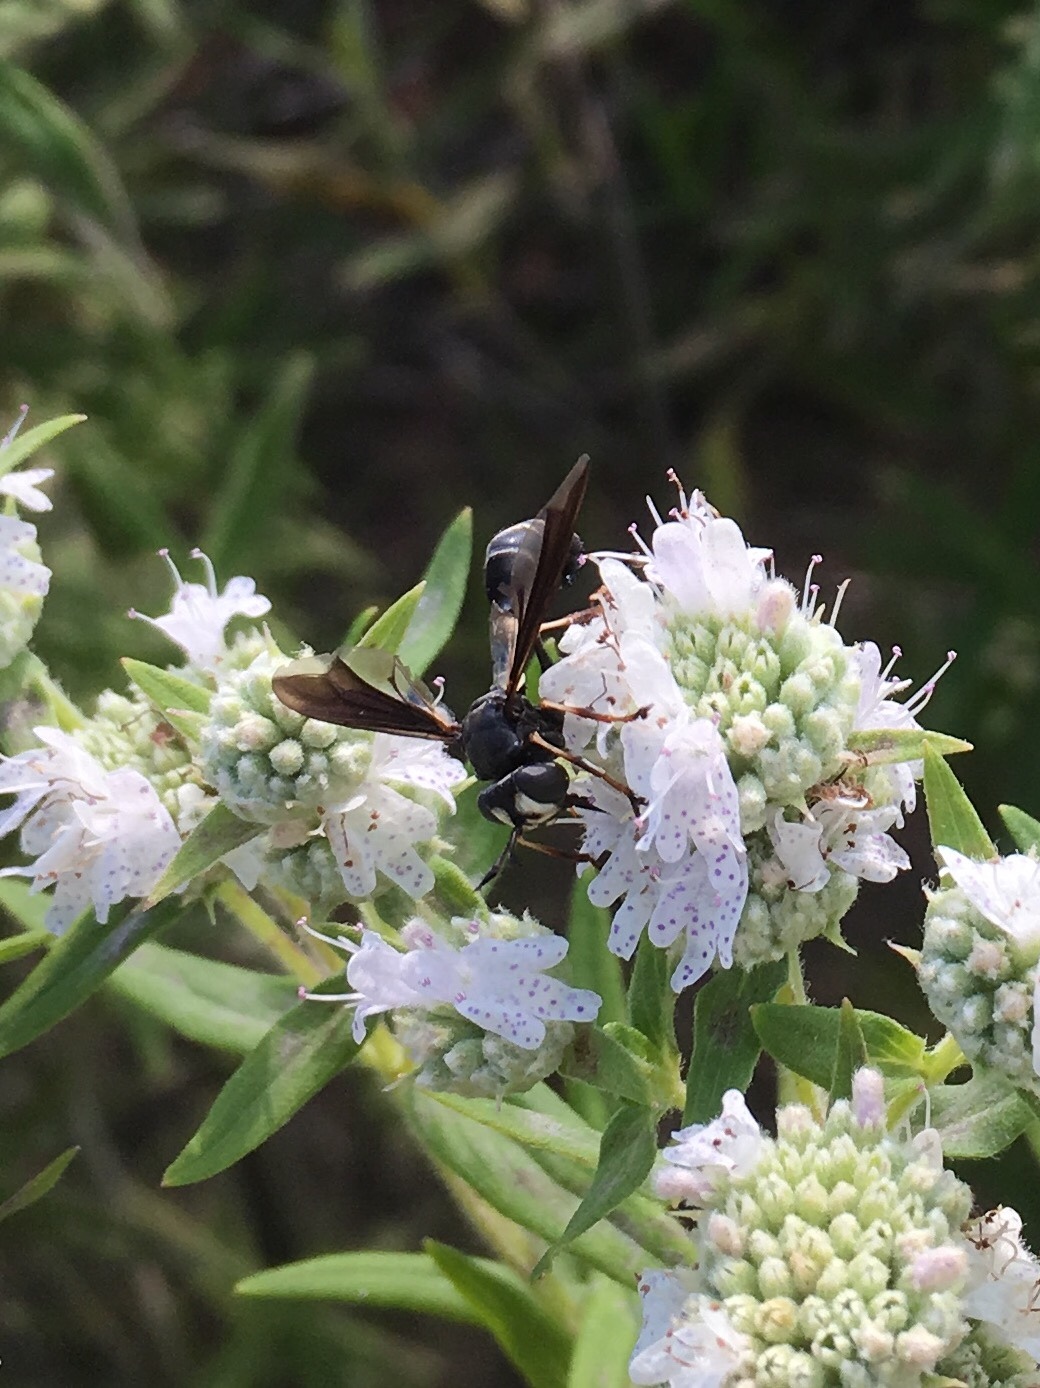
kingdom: Animalia
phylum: Arthropoda
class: Insecta
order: Diptera
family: Conopidae
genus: Physocephala
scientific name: Physocephala tibialis
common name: Common eastern physocephala
